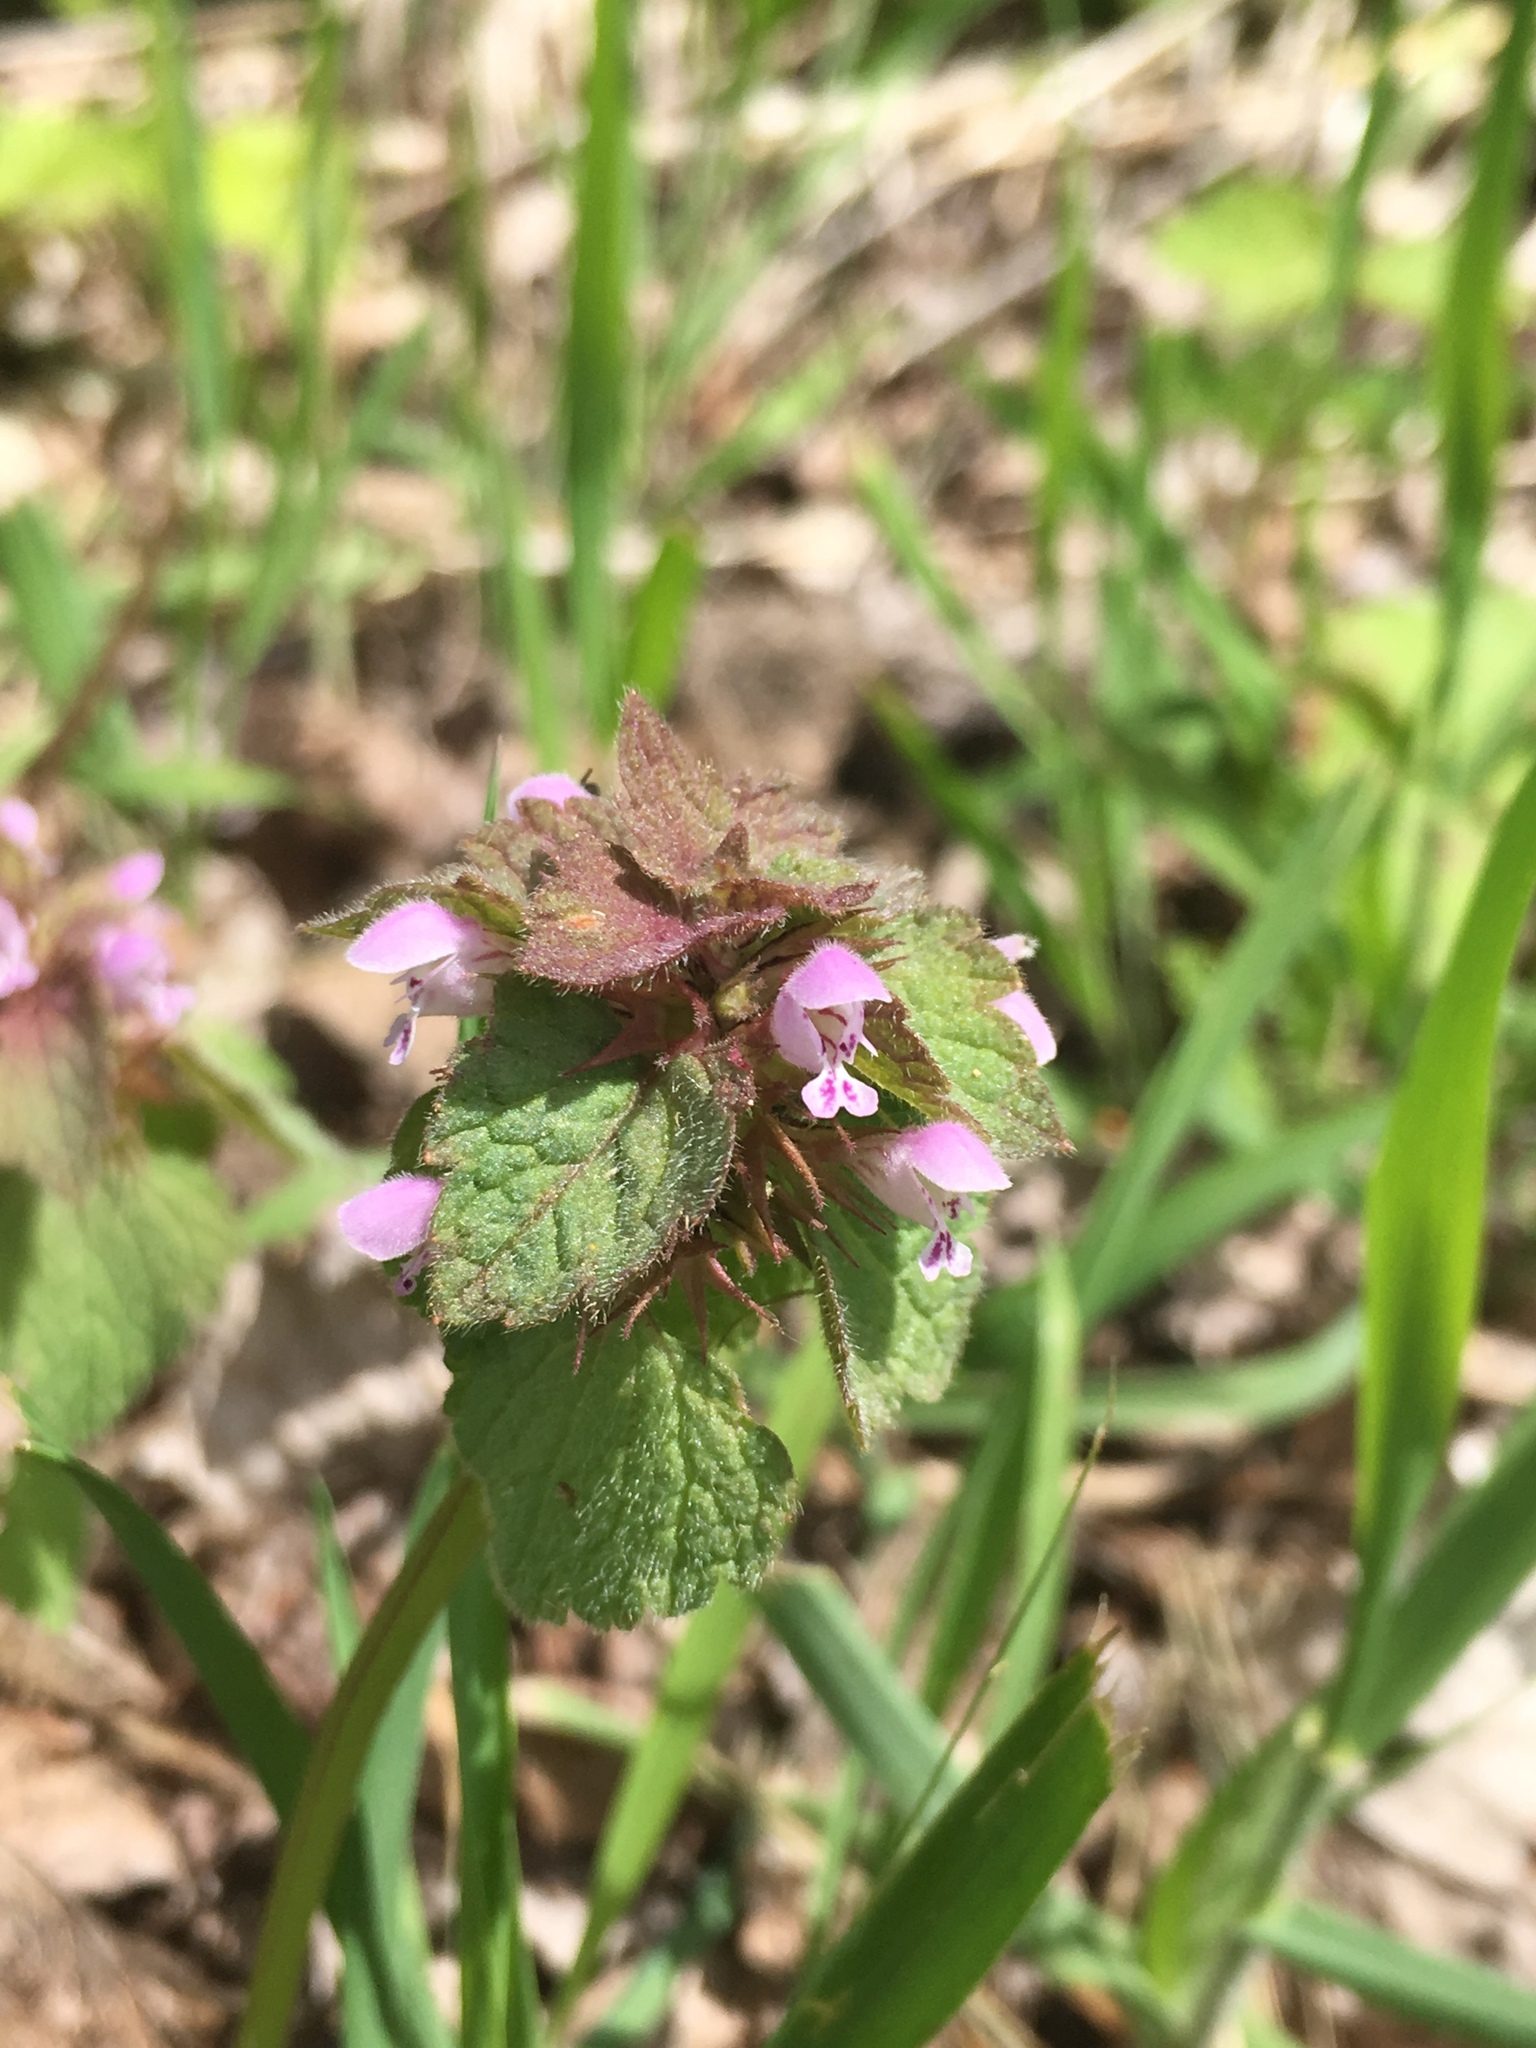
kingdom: Plantae
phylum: Tracheophyta
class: Magnoliopsida
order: Lamiales
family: Lamiaceae
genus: Lamium
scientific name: Lamium purpureum
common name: Red dead-nettle
